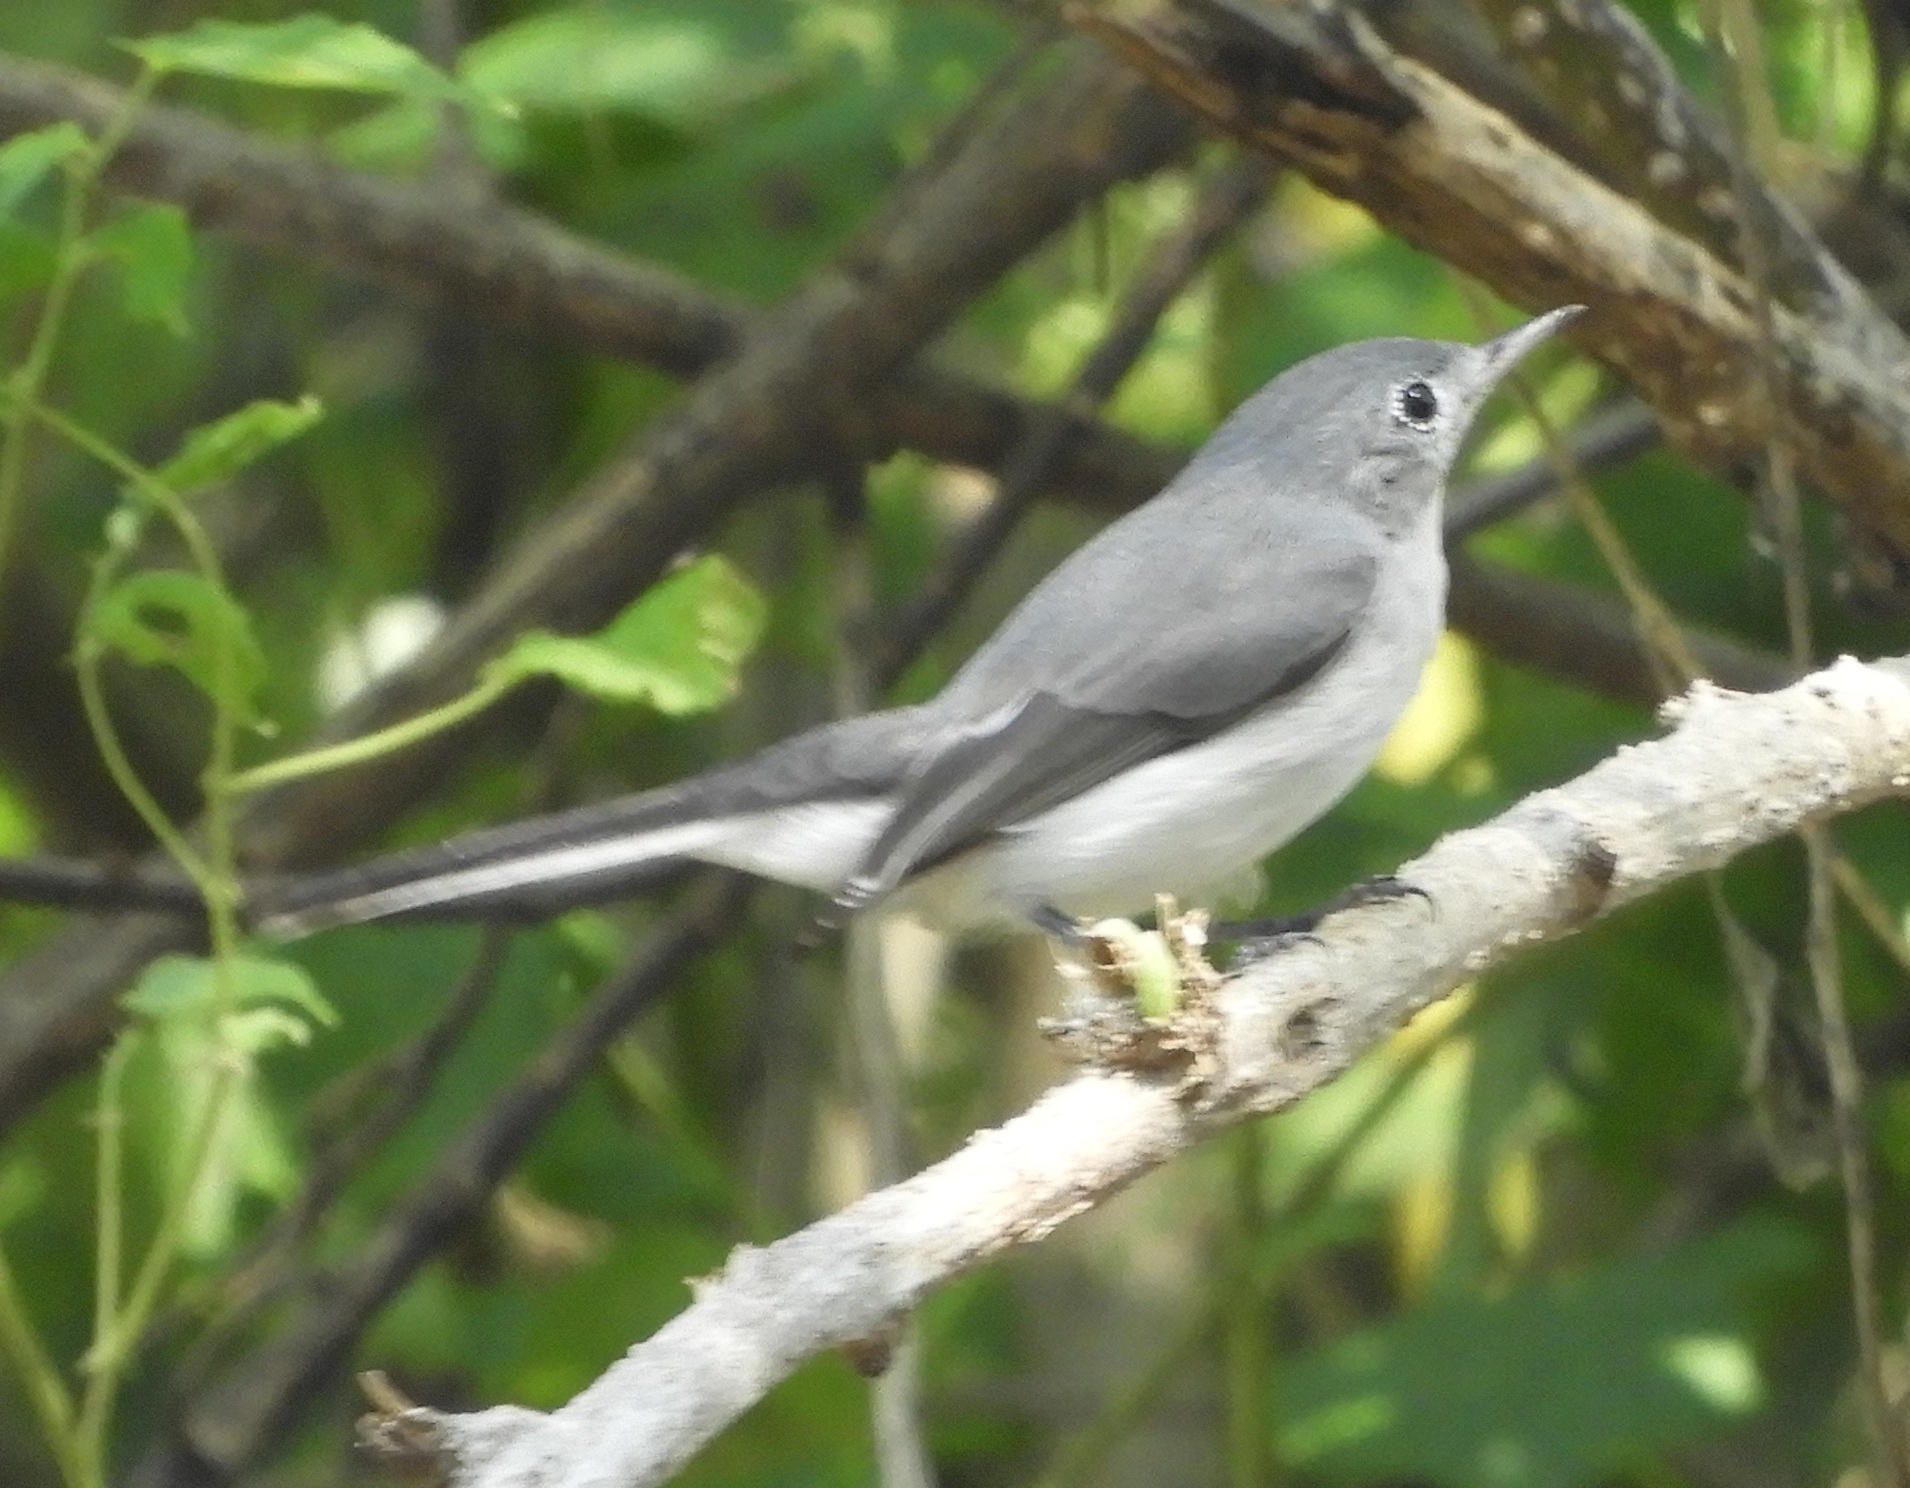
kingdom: Animalia
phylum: Chordata
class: Aves
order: Passeriformes
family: Polioptilidae
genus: Polioptila
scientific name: Polioptila caerulea
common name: Blue-gray gnatcatcher
